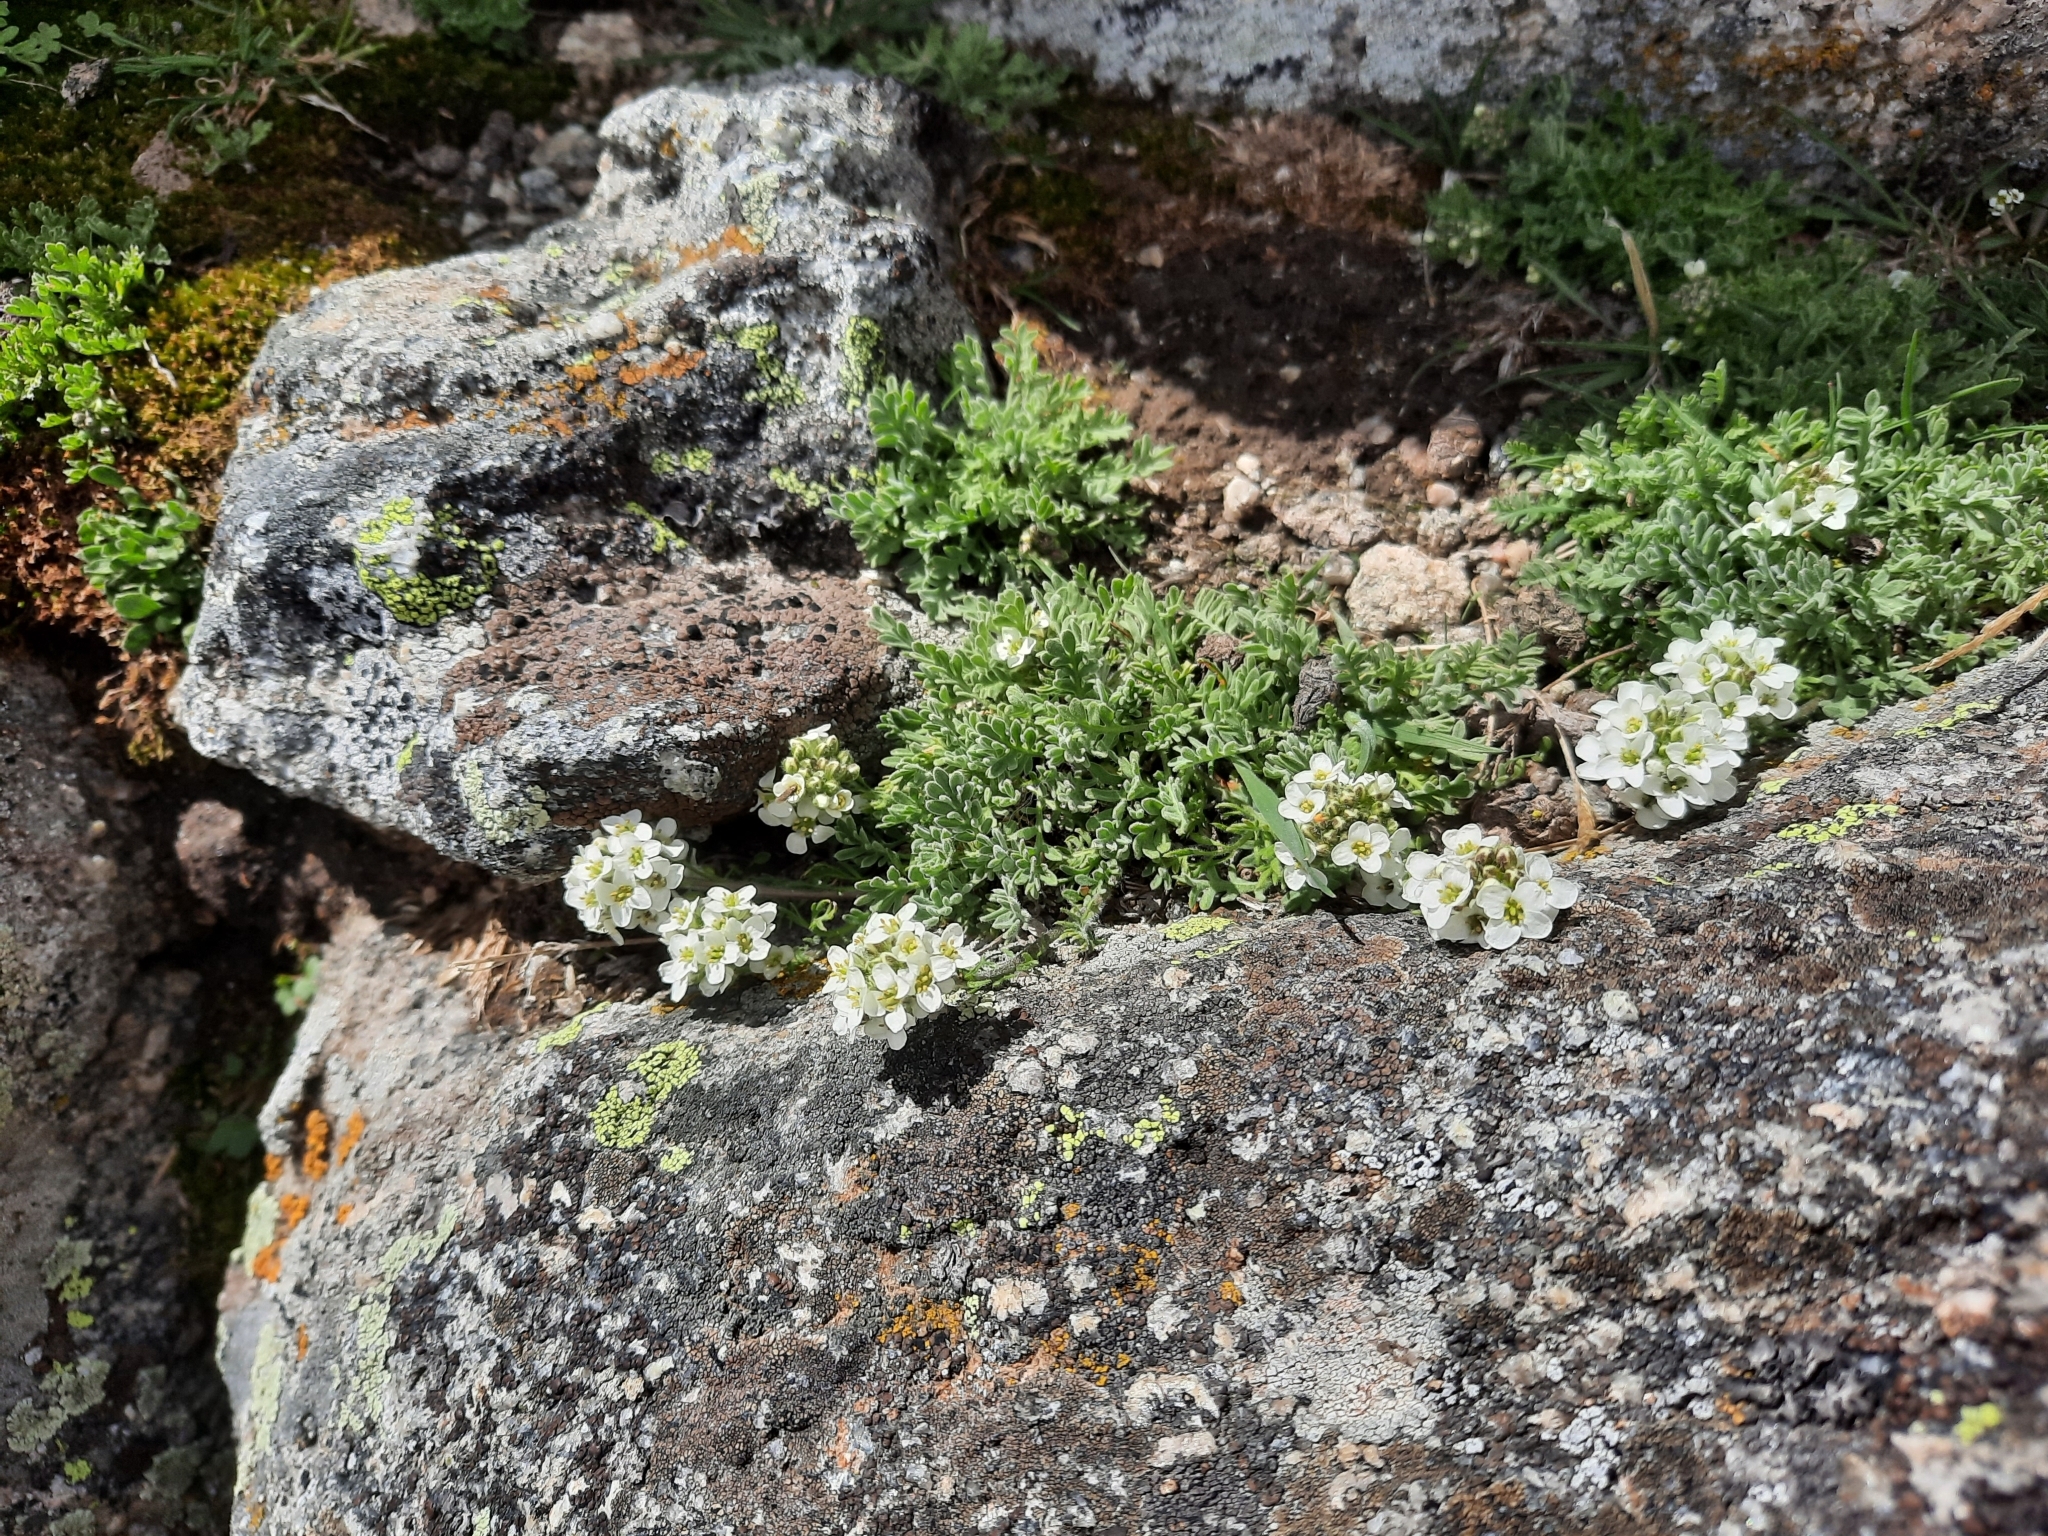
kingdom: Plantae
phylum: Tracheophyta
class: Magnoliopsida
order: Brassicales
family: Brassicaceae
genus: Smelowskia
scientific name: Smelowskia americana
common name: American false candytuft
